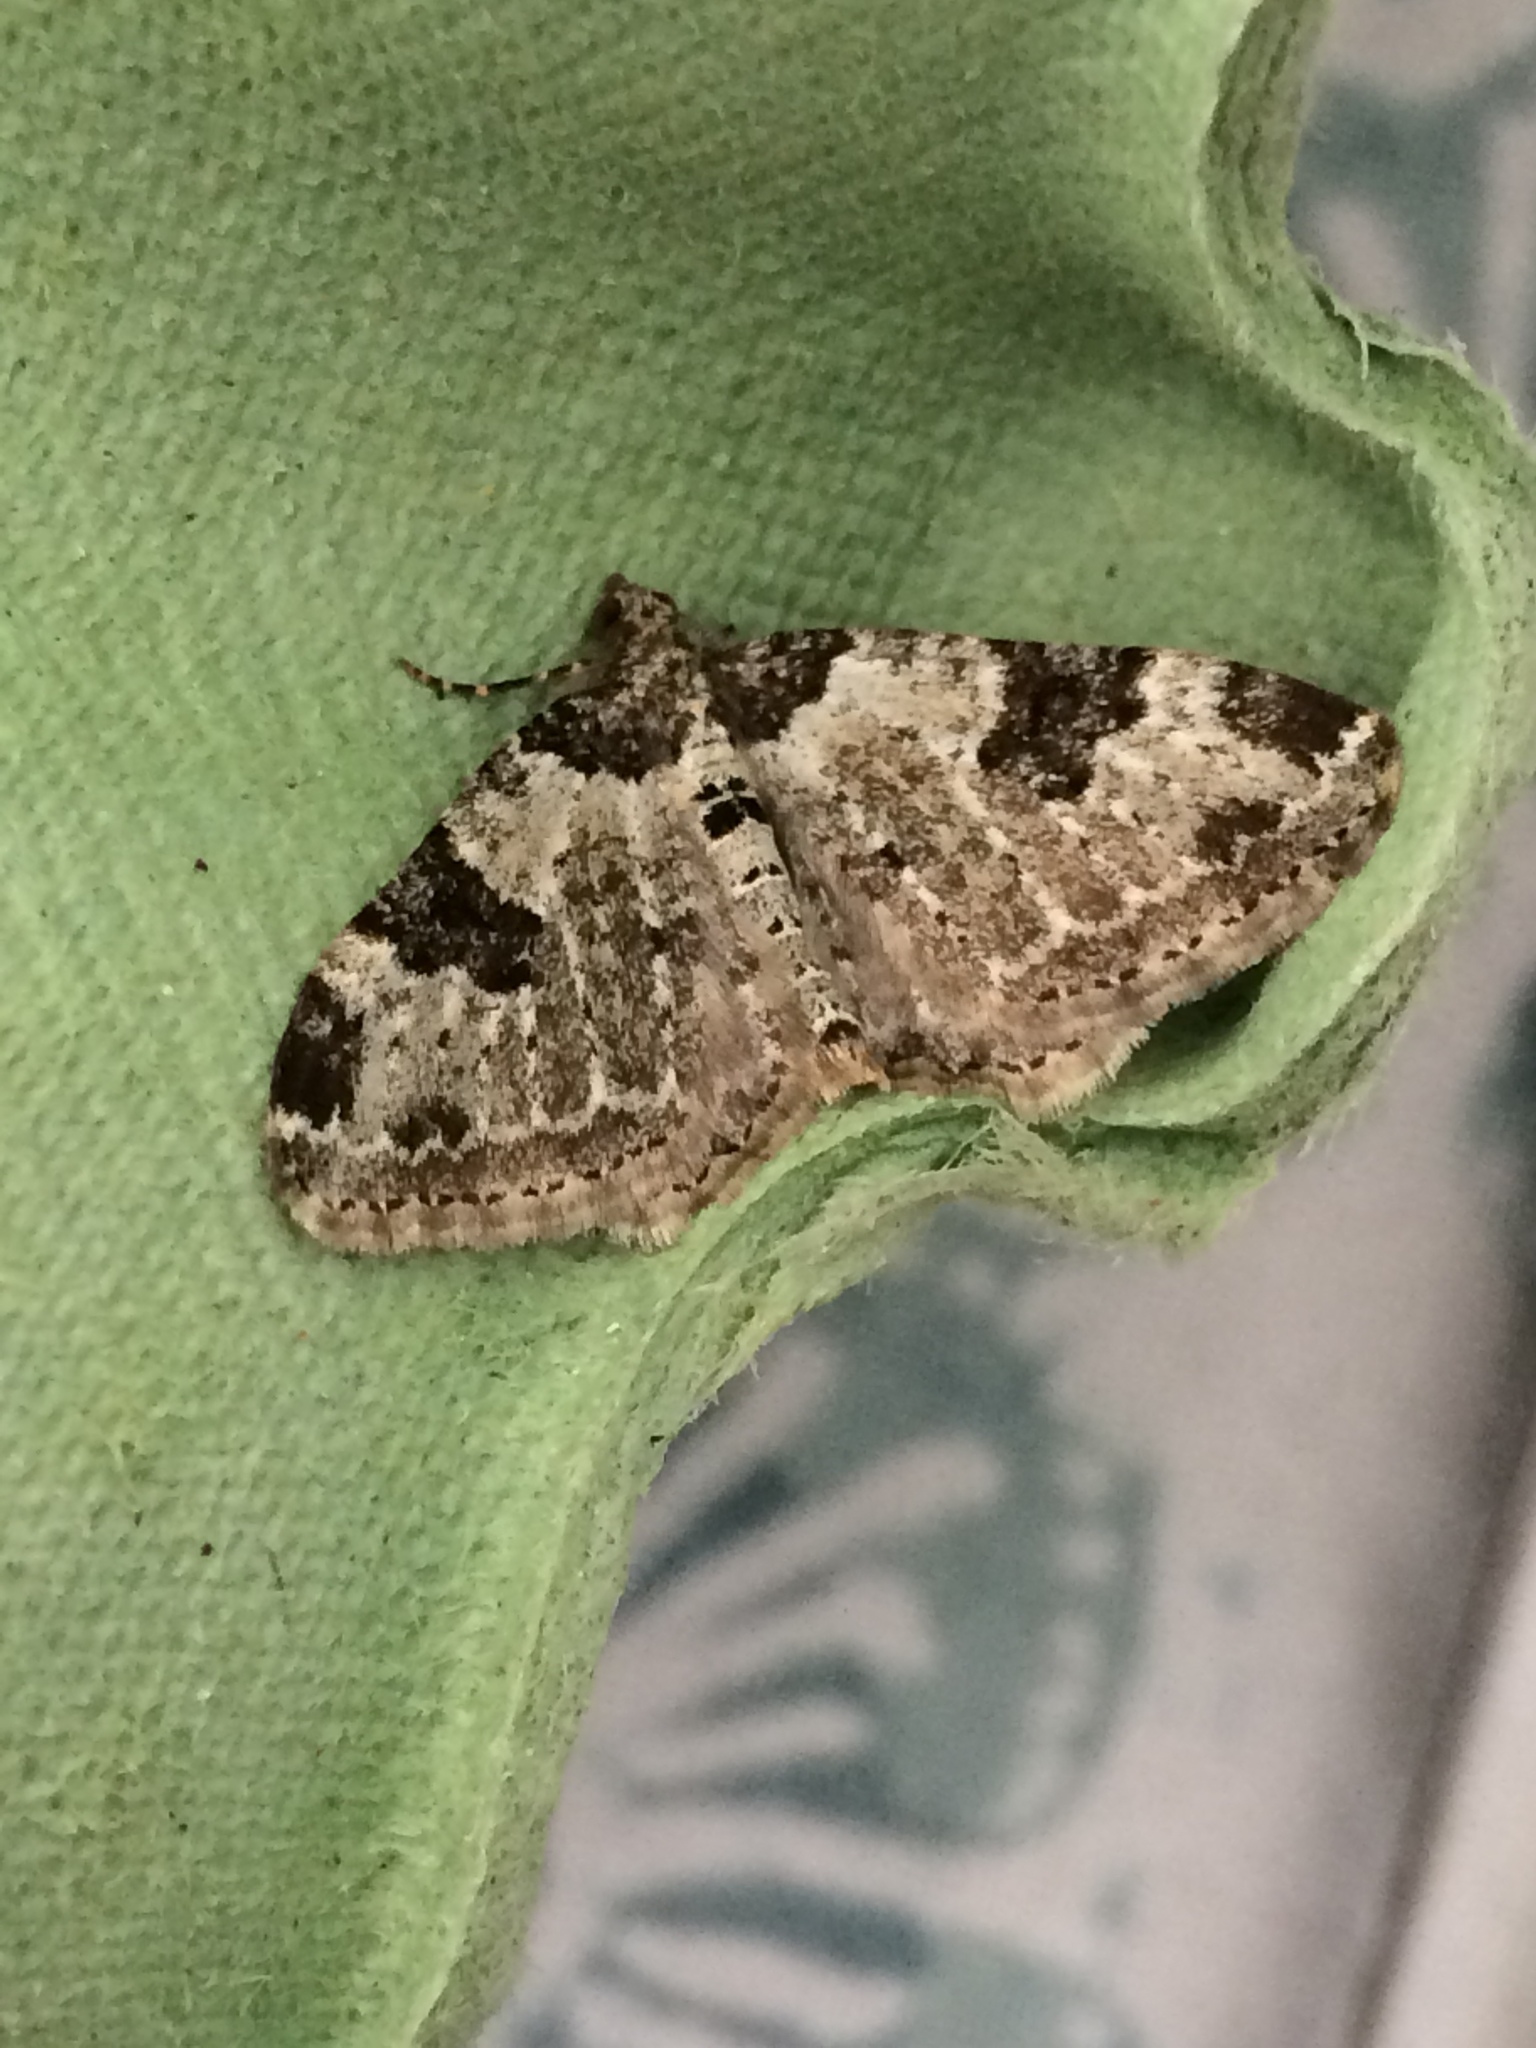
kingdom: Animalia
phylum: Arthropoda
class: Insecta
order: Lepidoptera
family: Geometridae
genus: Xanthorhoe
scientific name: Xanthorhoe fluctuata
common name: Garden carpet
